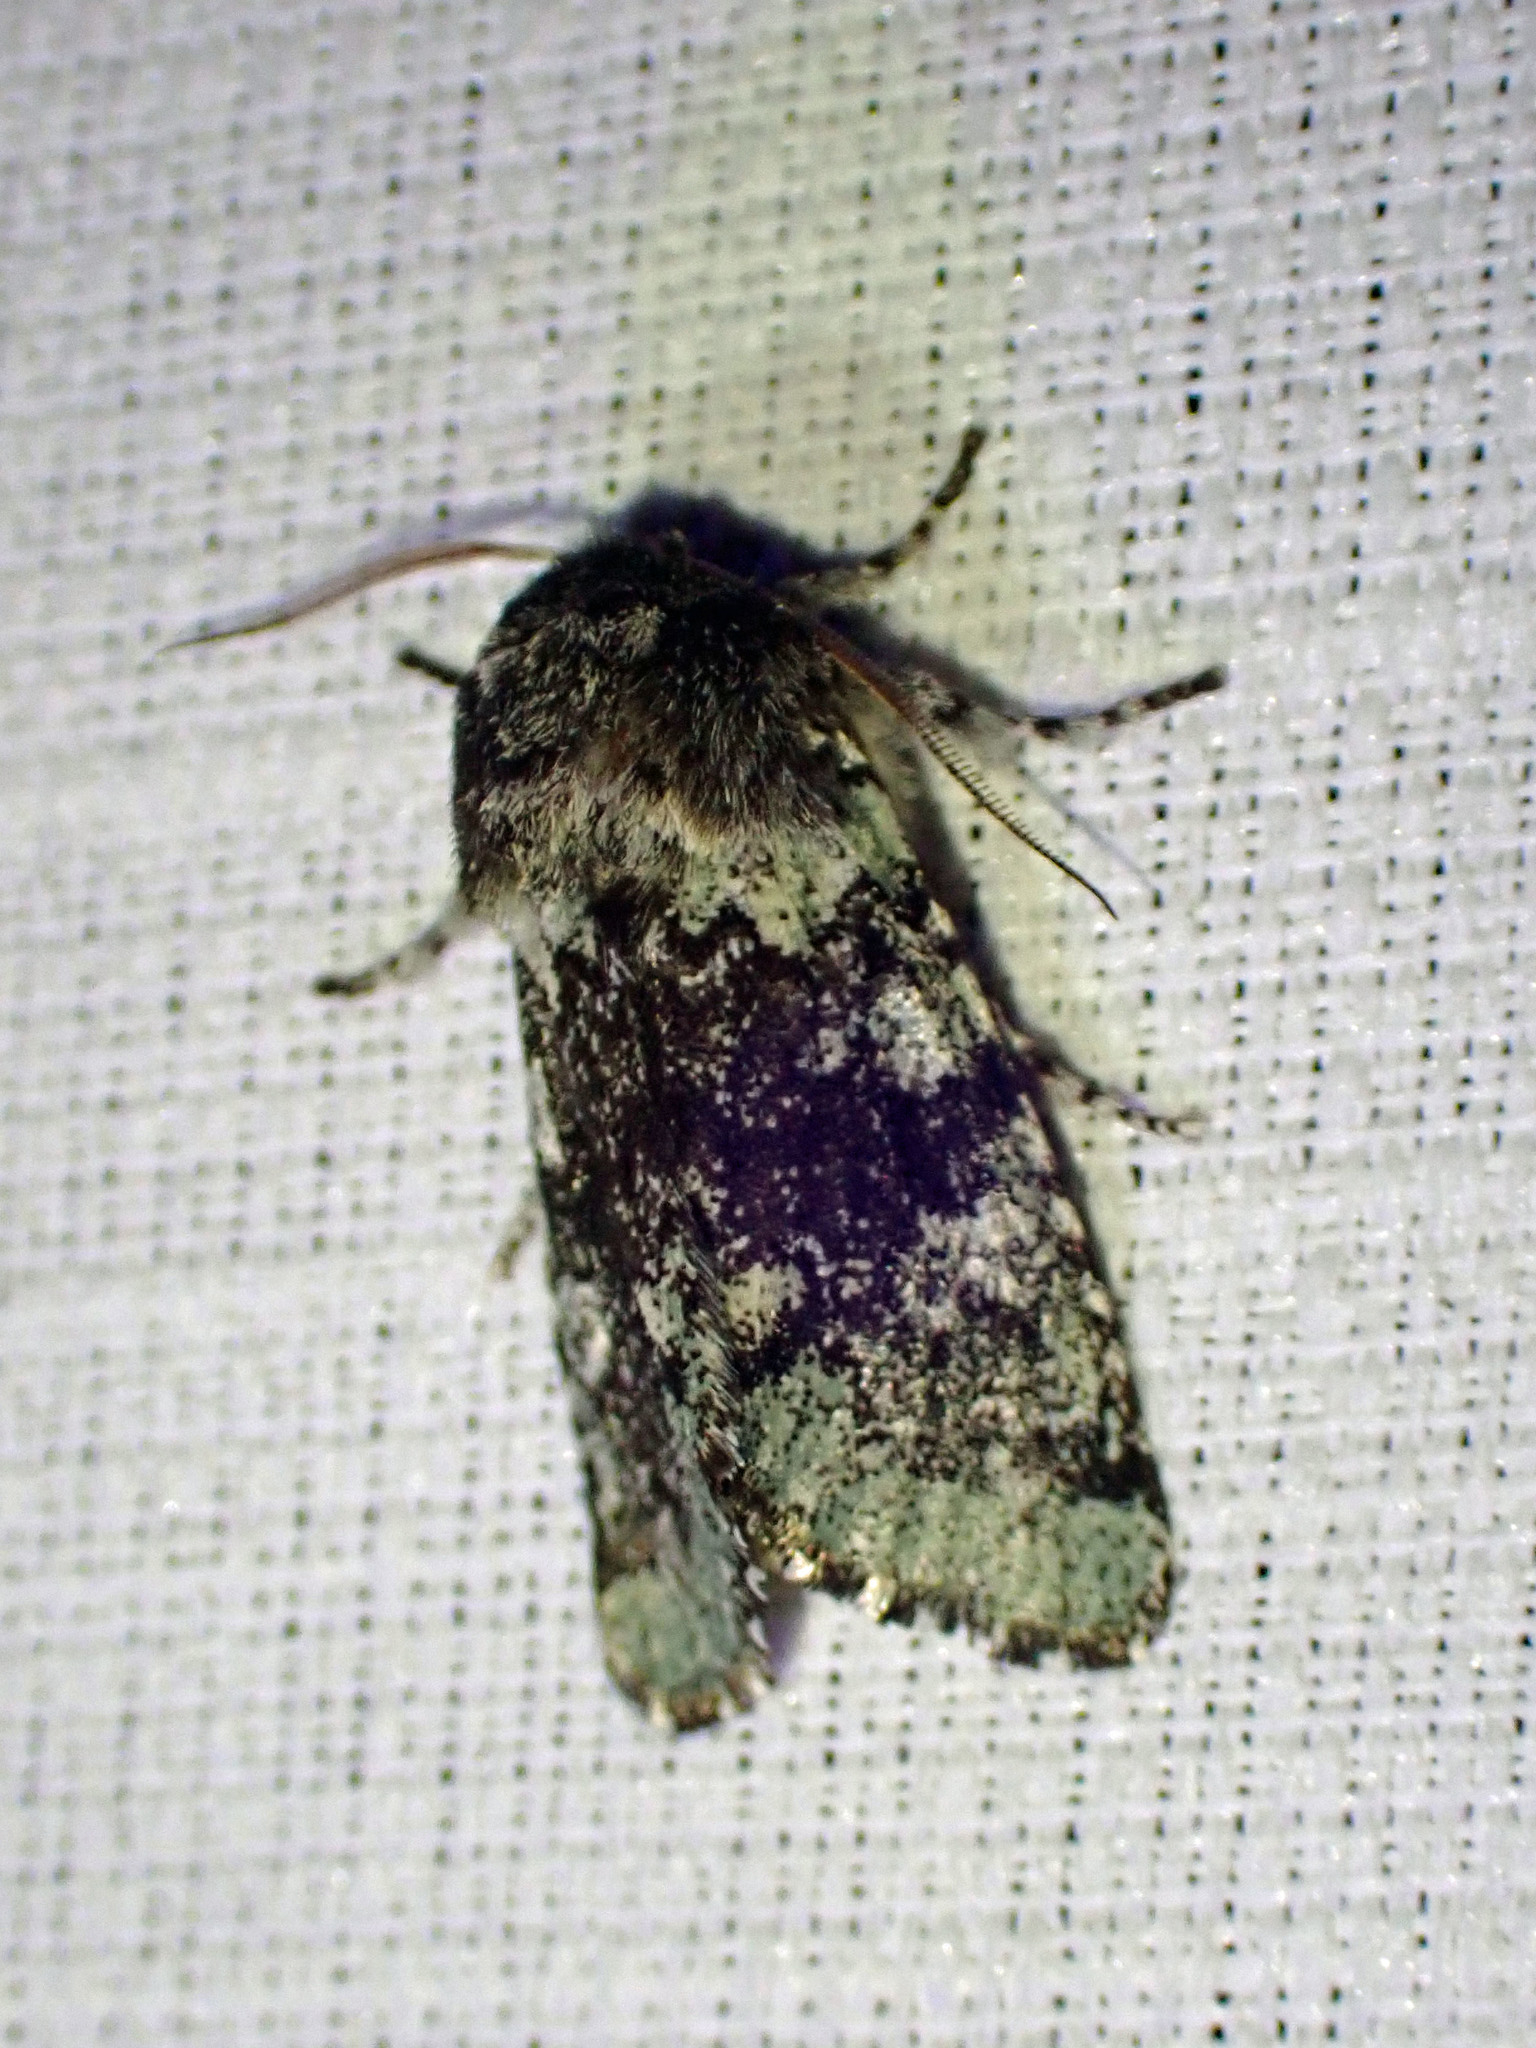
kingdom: Animalia
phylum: Arthropoda
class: Insecta
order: Lepidoptera
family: Noctuidae
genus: Feralia
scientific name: Feralia major
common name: Major sallow
